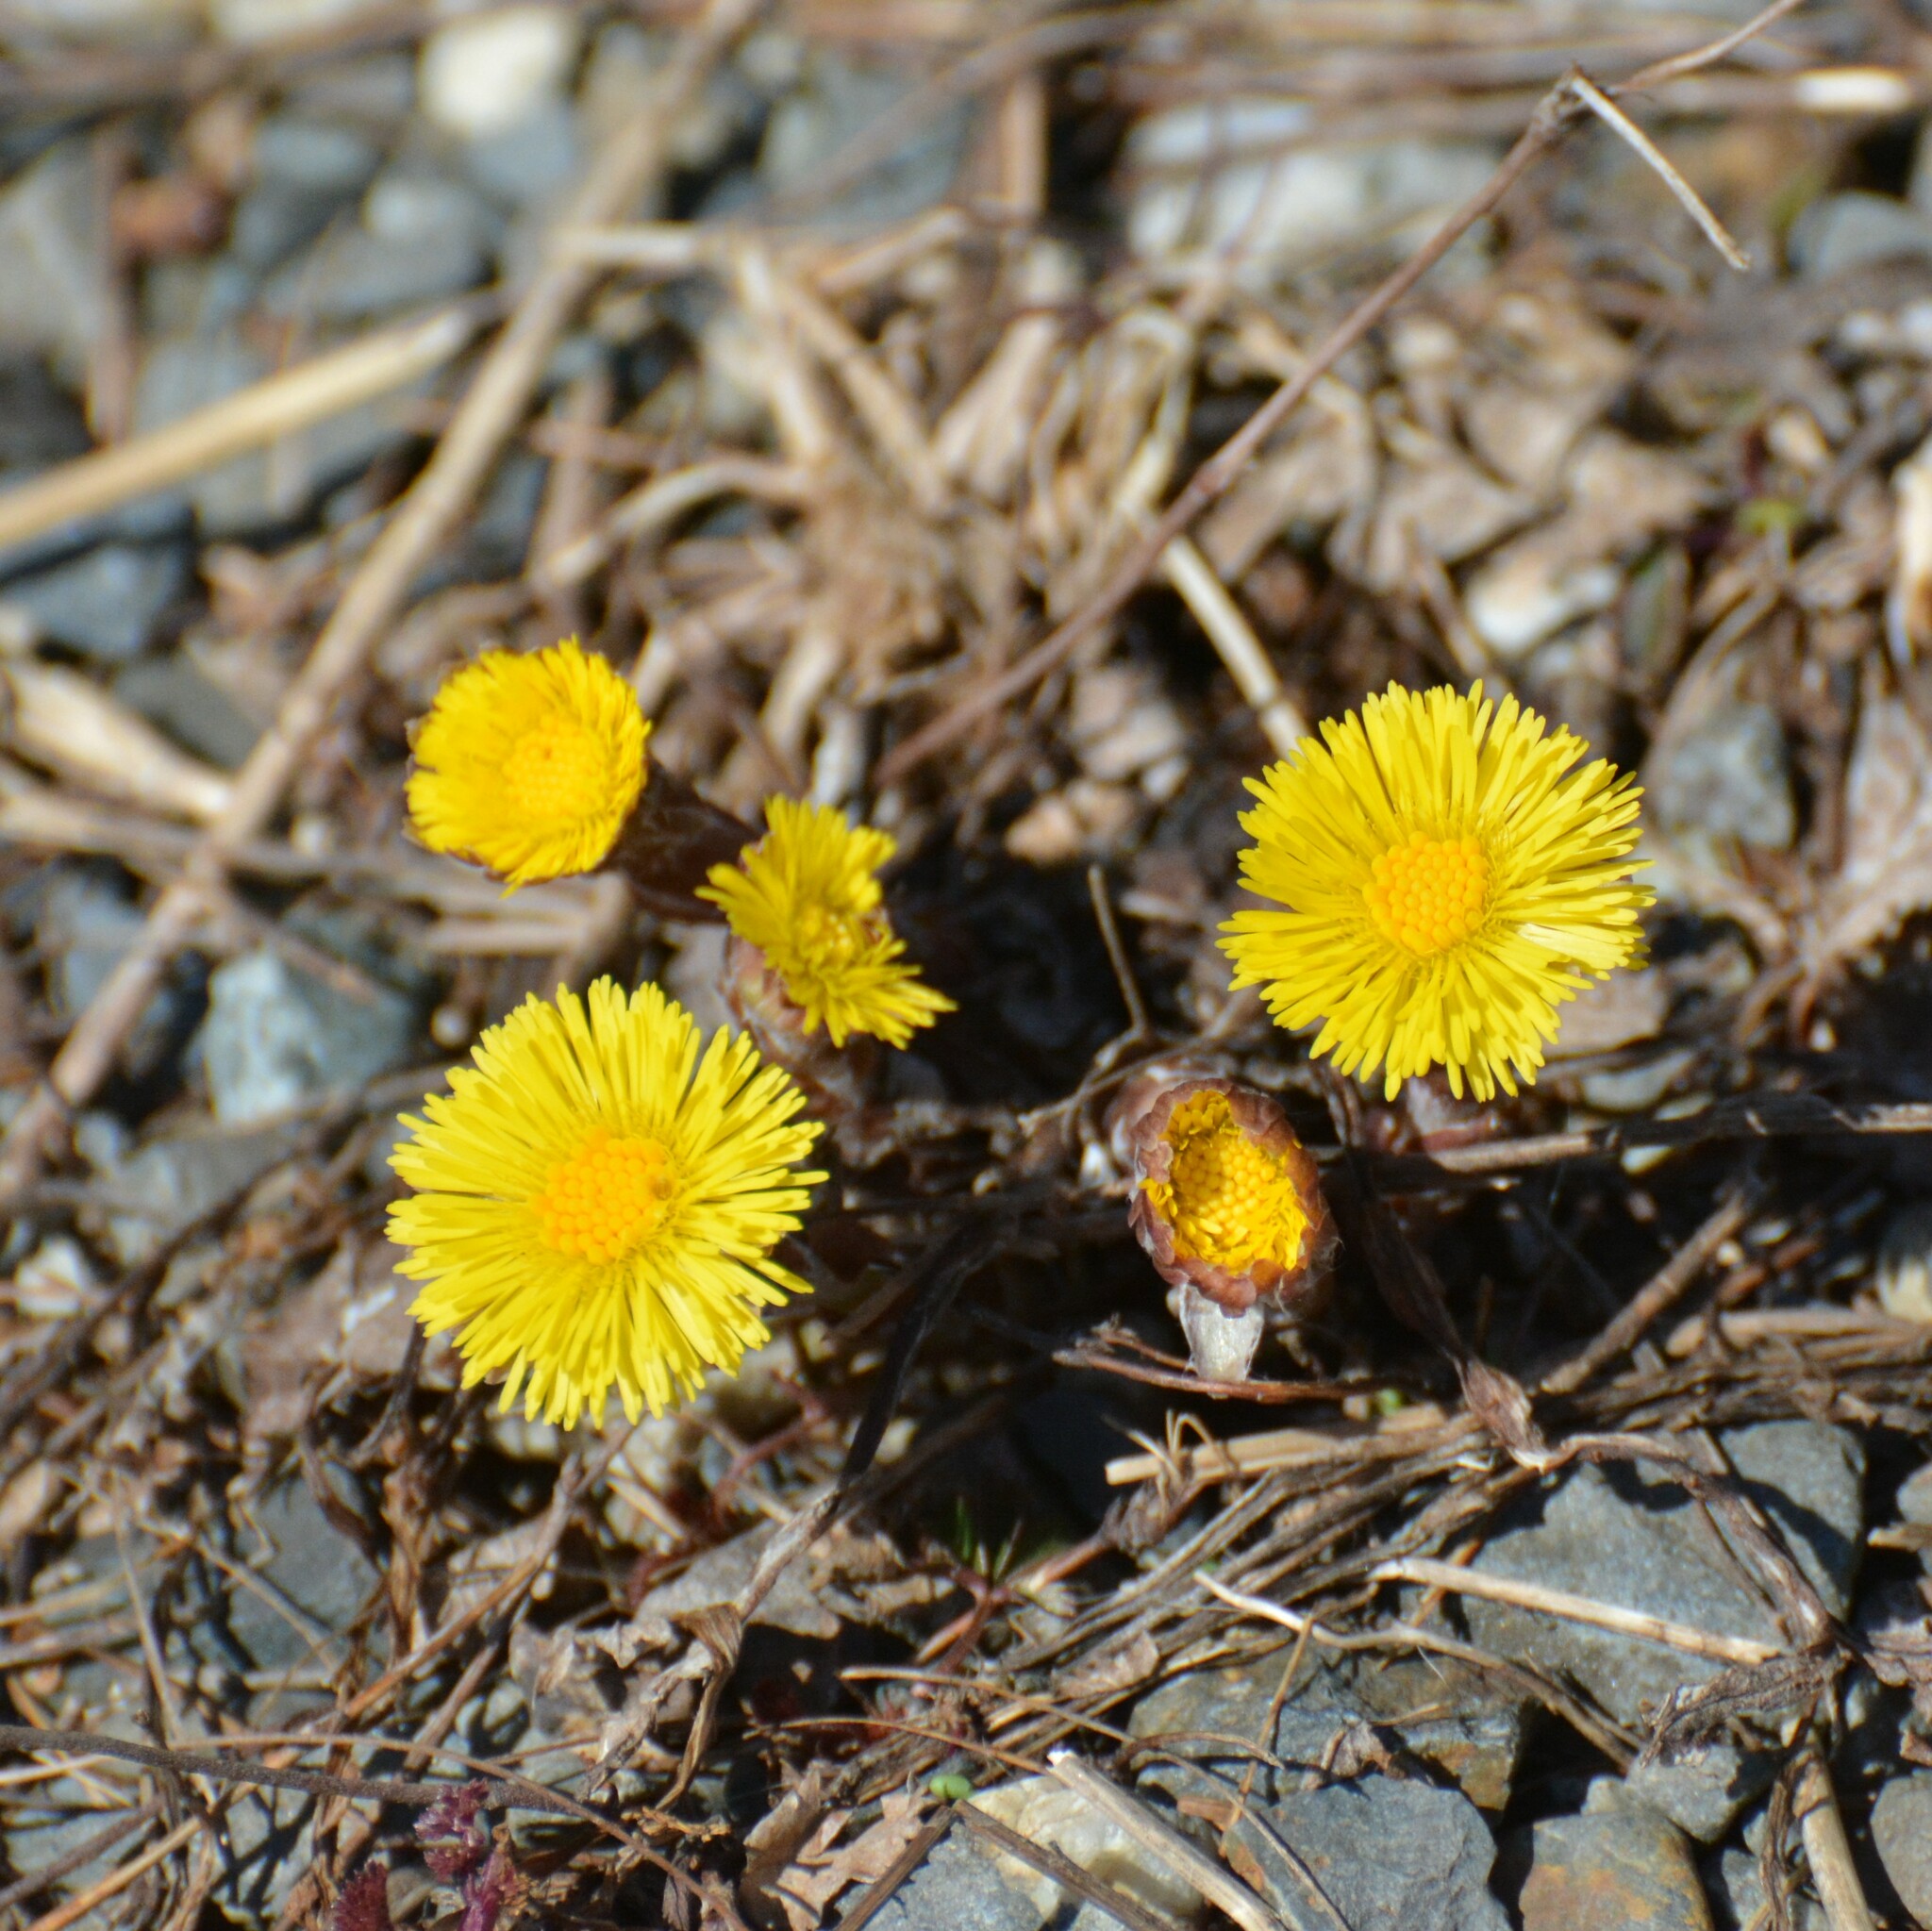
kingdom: Plantae
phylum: Tracheophyta
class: Magnoliopsida
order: Asterales
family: Asteraceae
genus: Tussilago
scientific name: Tussilago farfara
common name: Coltsfoot
